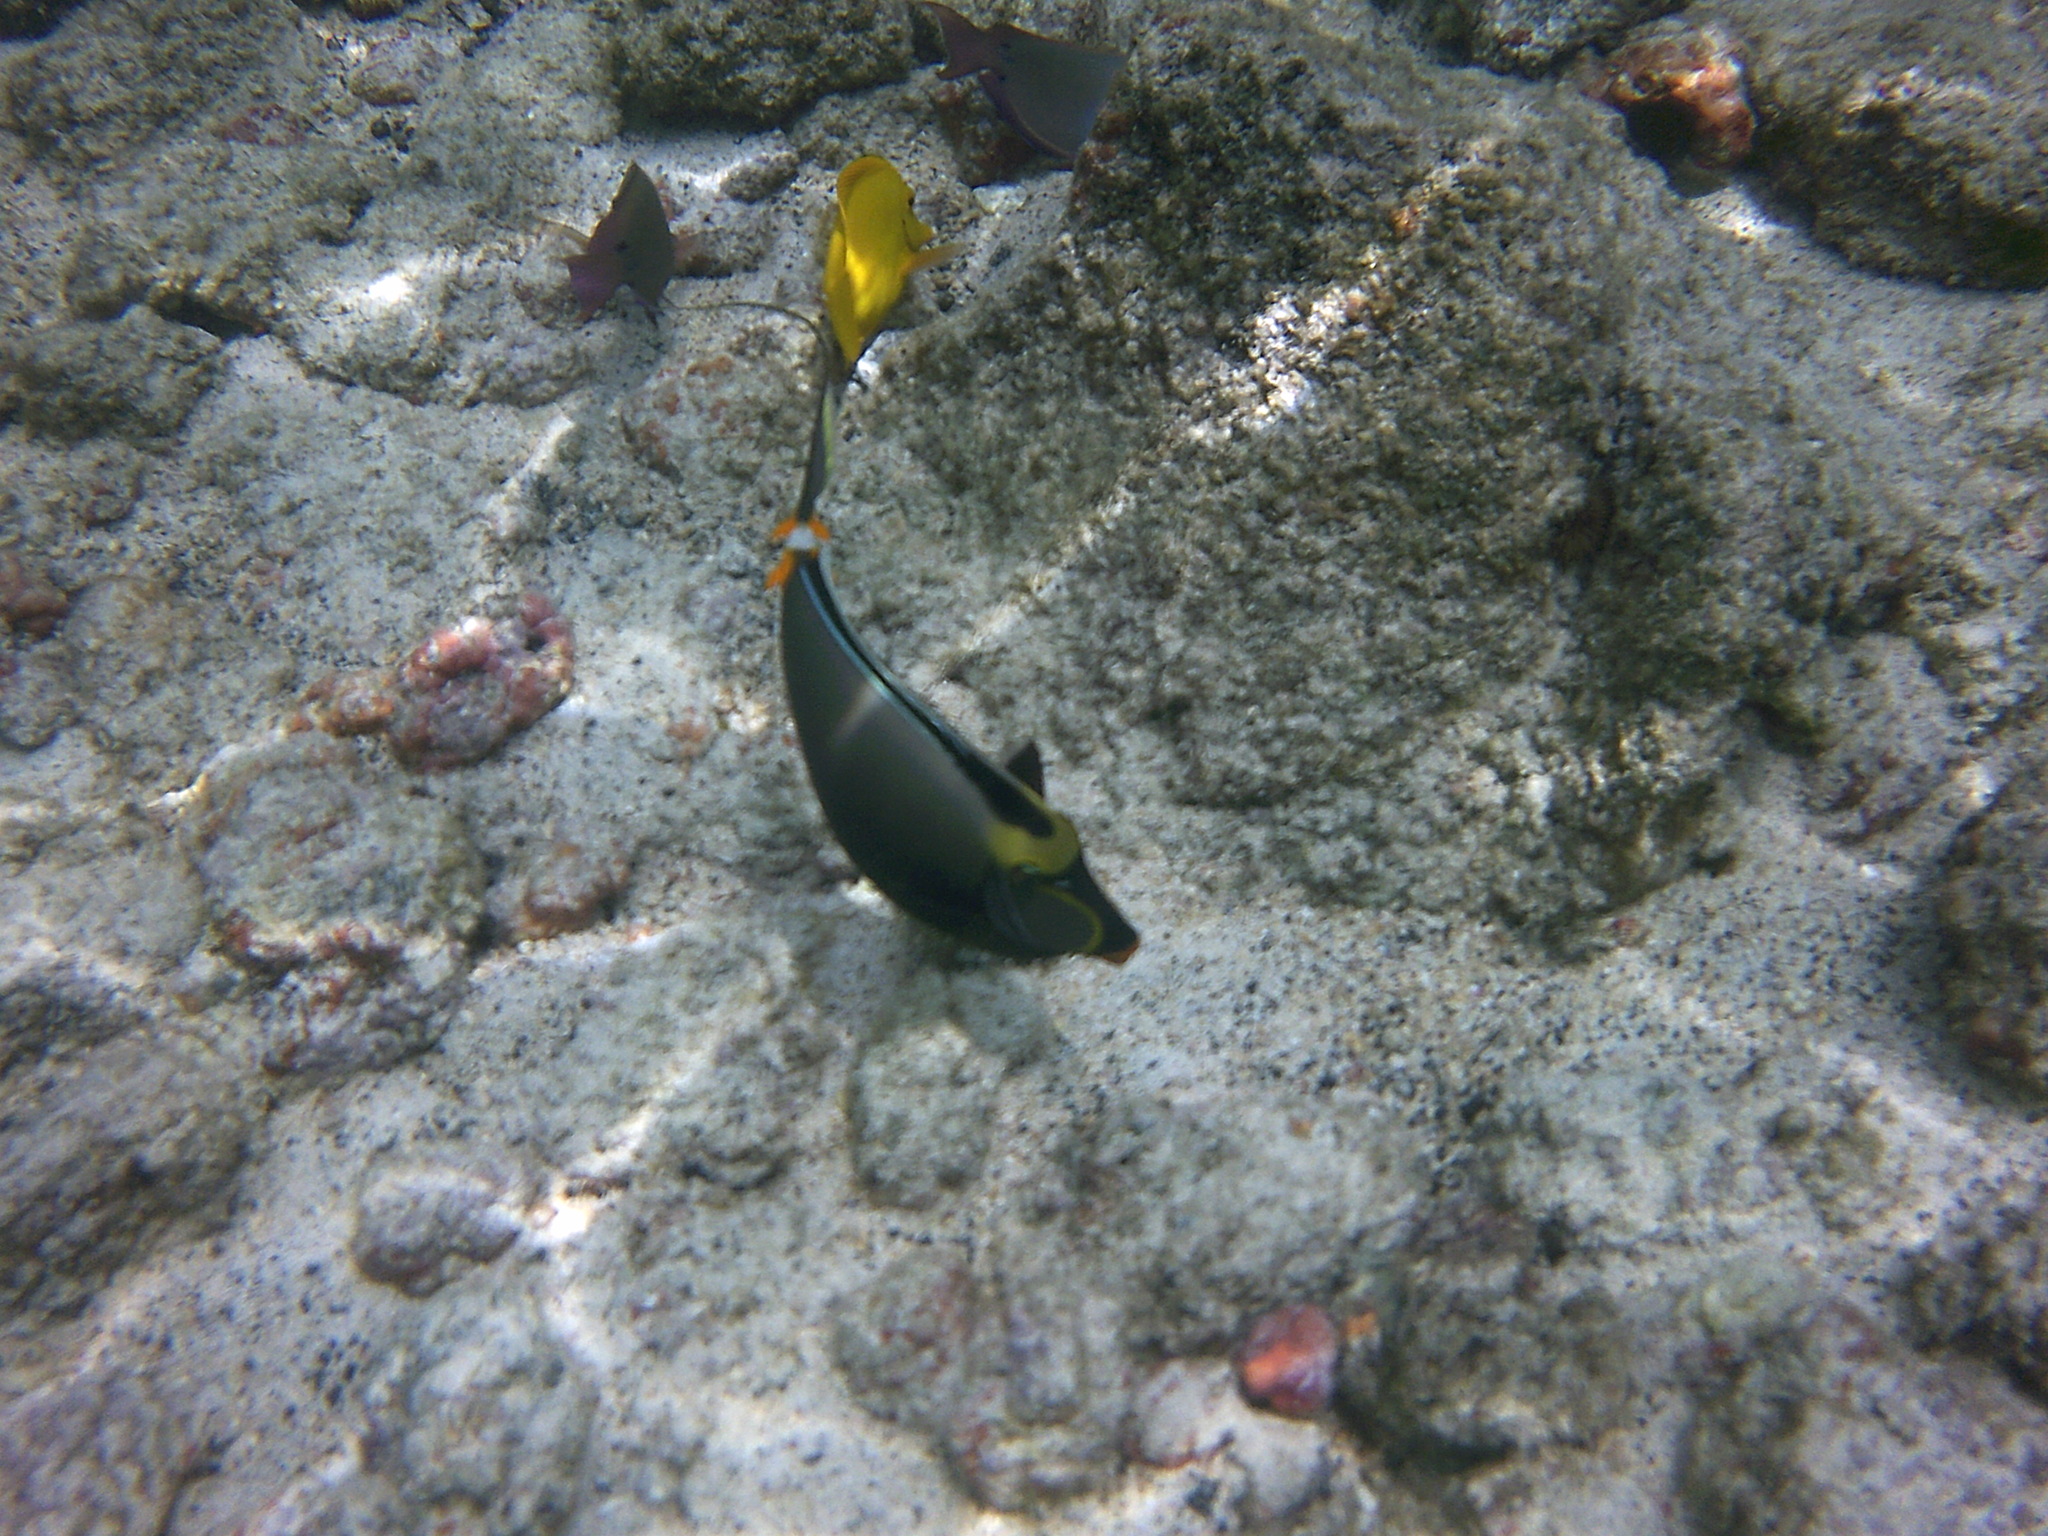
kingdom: Animalia
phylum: Chordata
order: Perciformes
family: Acanthuridae
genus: Naso
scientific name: Naso lituratus
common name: Orangespine unicornfish
